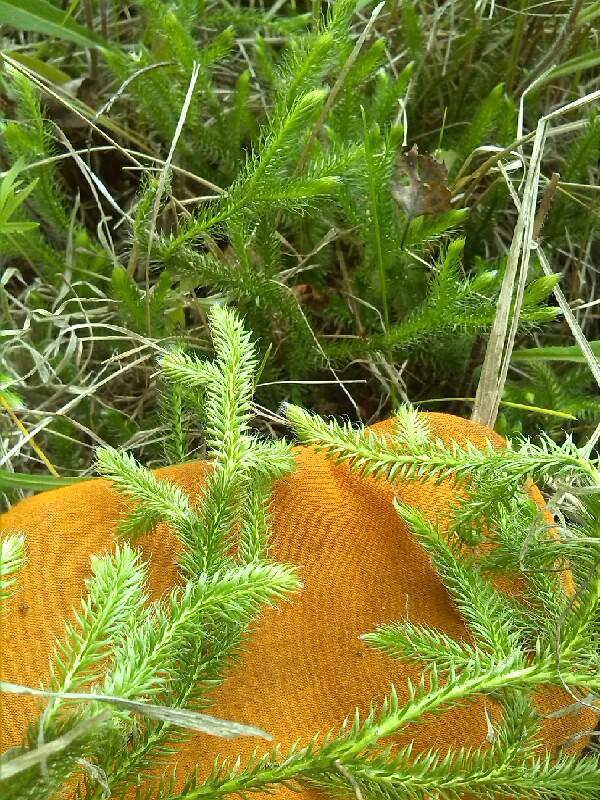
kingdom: Plantae
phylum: Tracheophyta
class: Lycopodiopsida
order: Lycopodiales
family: Lycopodiaceae
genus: Lycopodium
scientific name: Lycopodium clavatum
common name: Stag's-horn clubmoss
